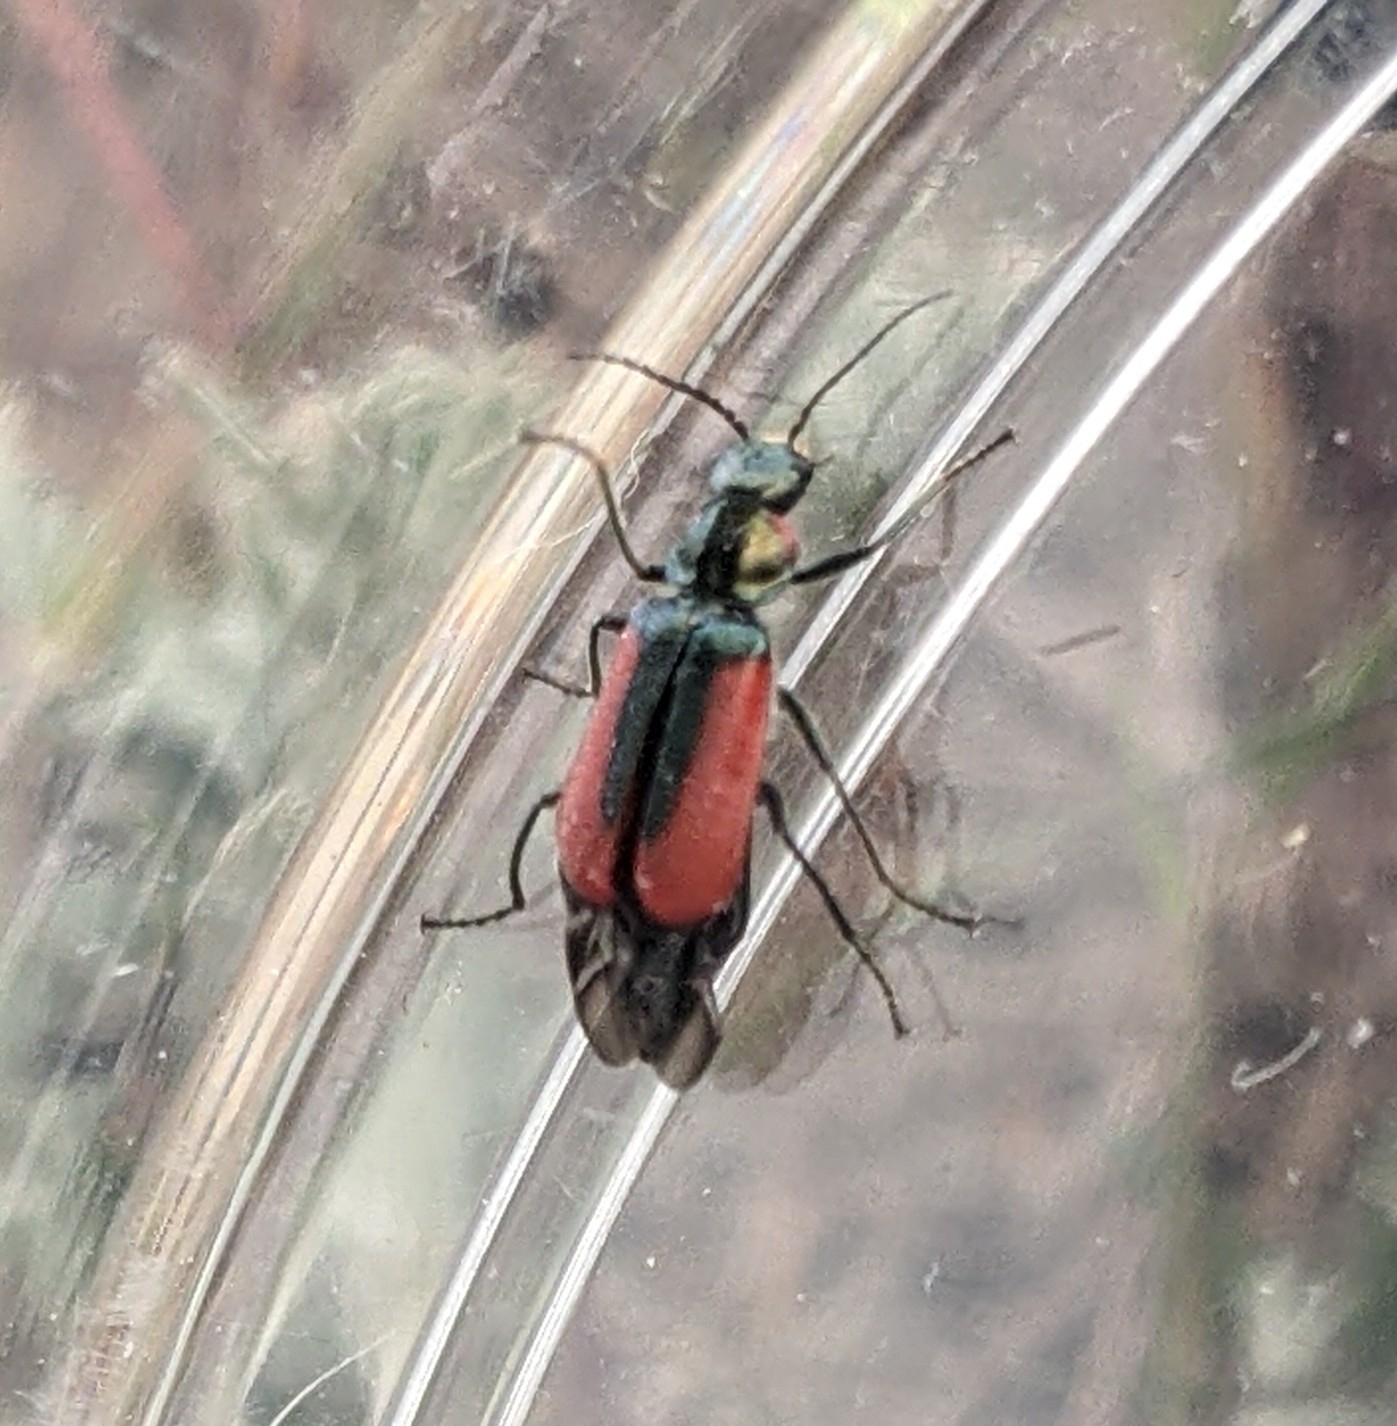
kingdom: Animalia
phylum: Arthropoda
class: Insecta
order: Coleoptera
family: Melyridae
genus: Malachius
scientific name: Malachius aeneus
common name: Scarlet malachite beetle
